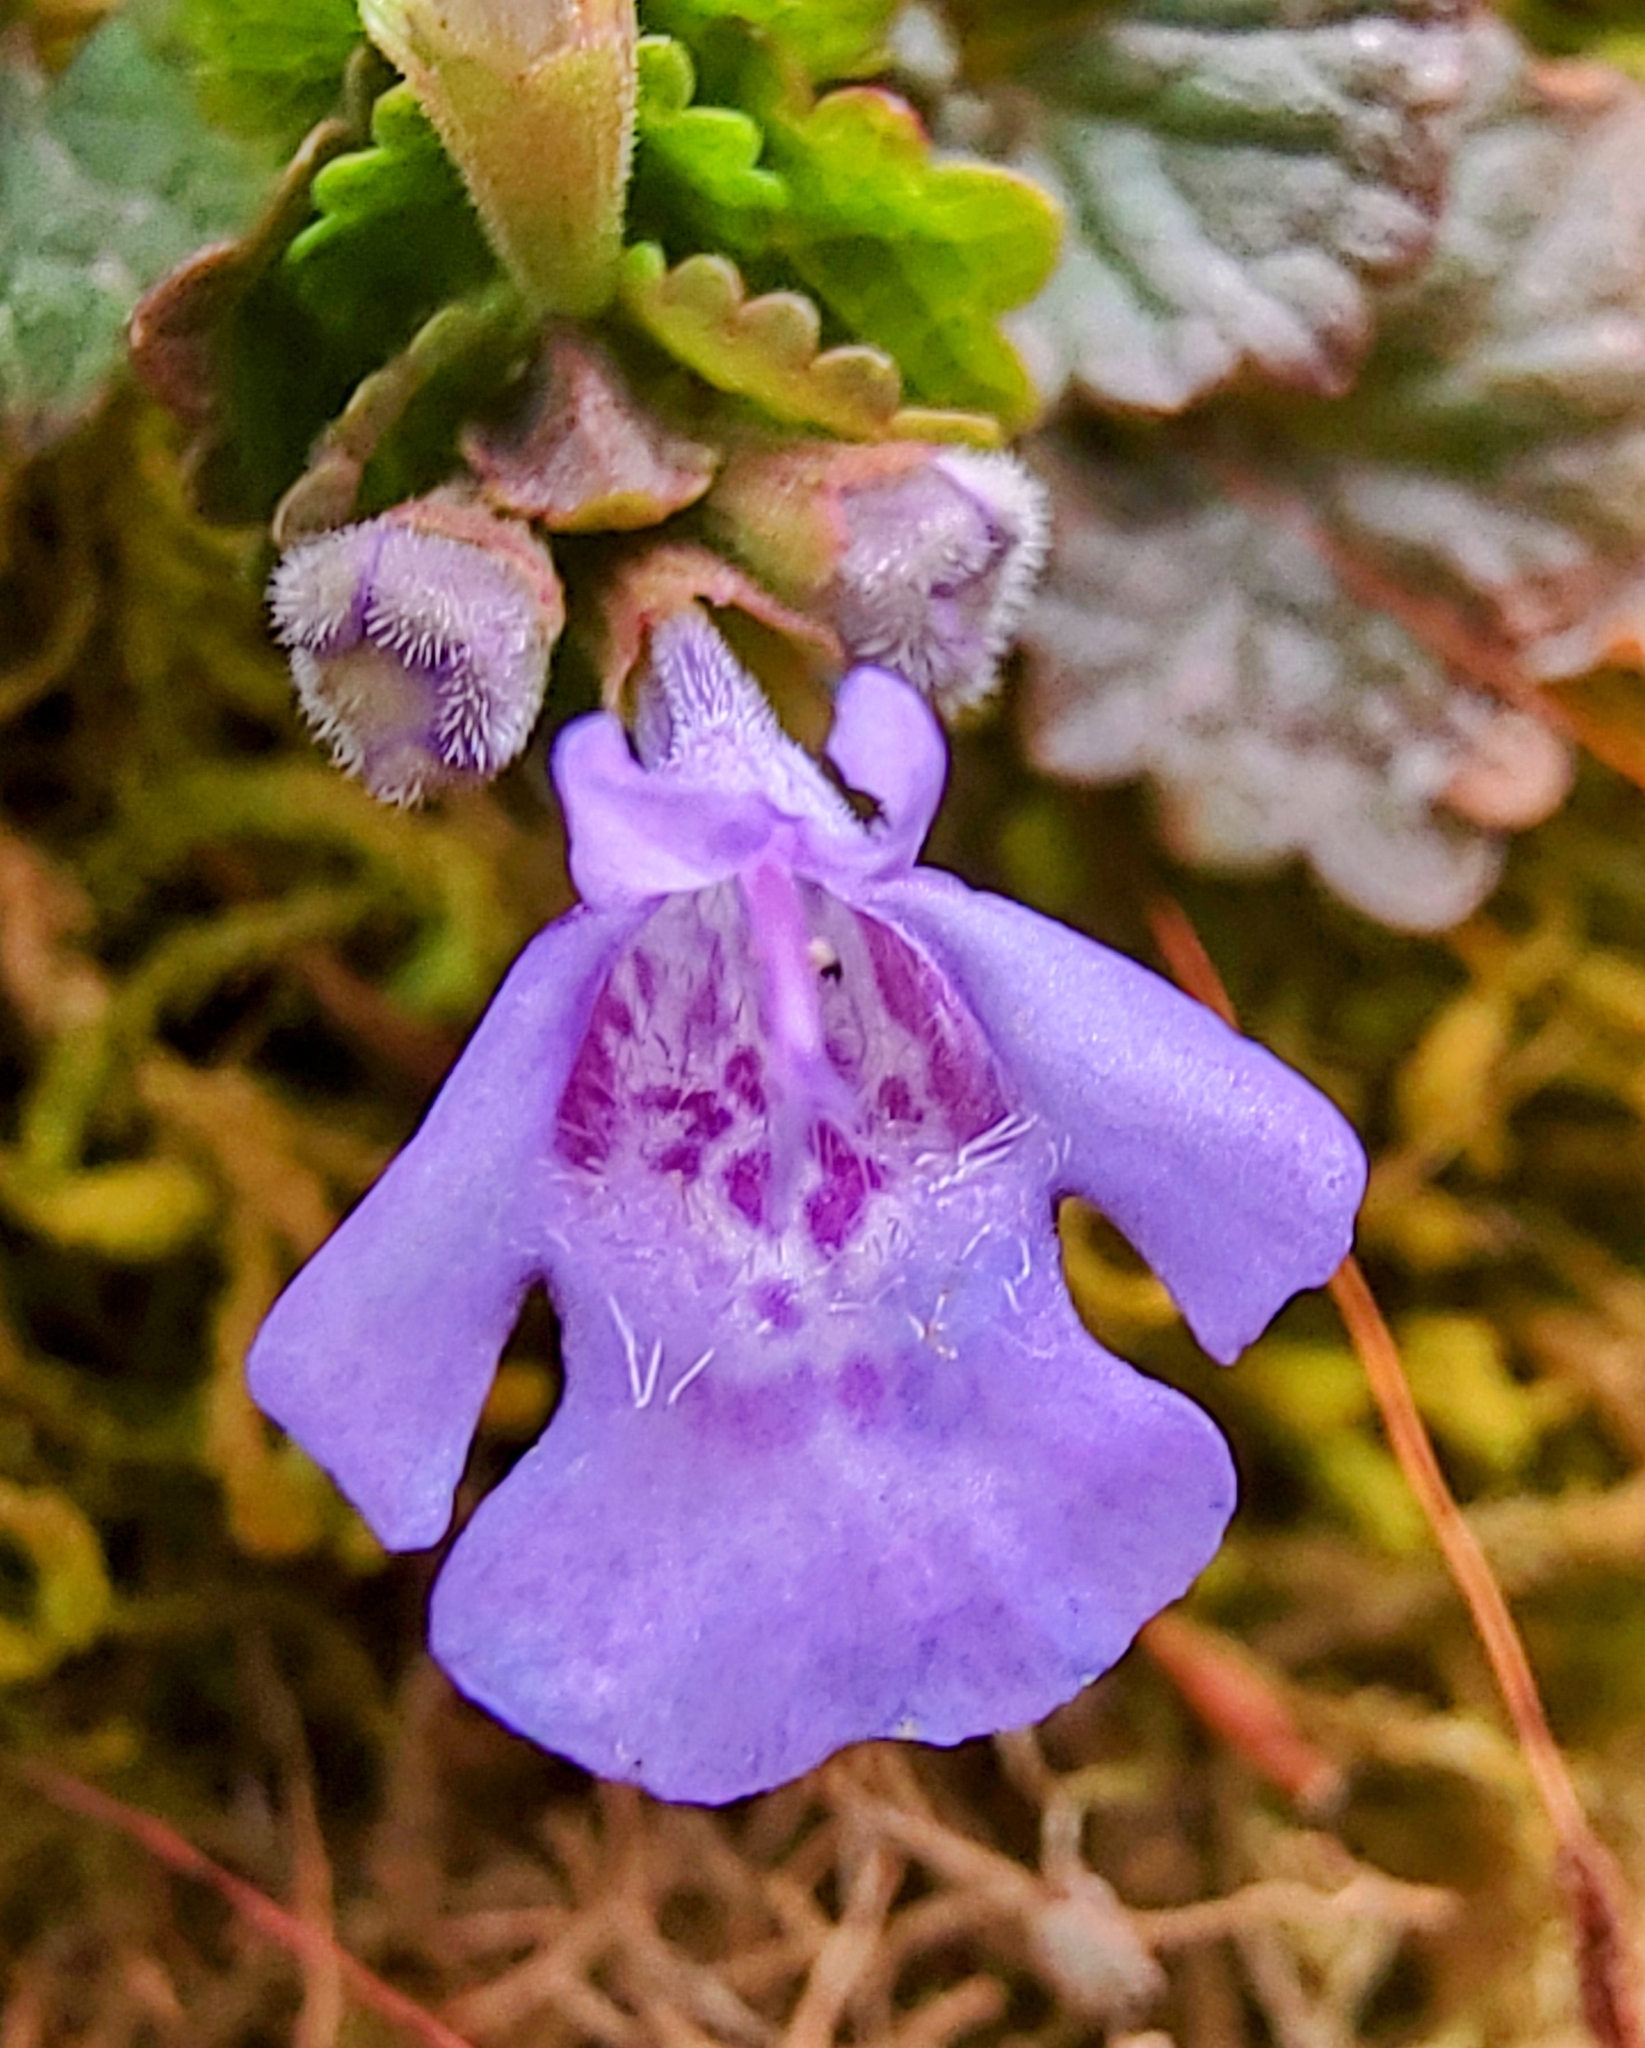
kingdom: Plantae
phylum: Tracheophyta
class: Magnoliopsida
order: Lamiales
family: Lamiaceae
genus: Glechoma
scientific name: Glechoma hederacea
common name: Ground ivy
